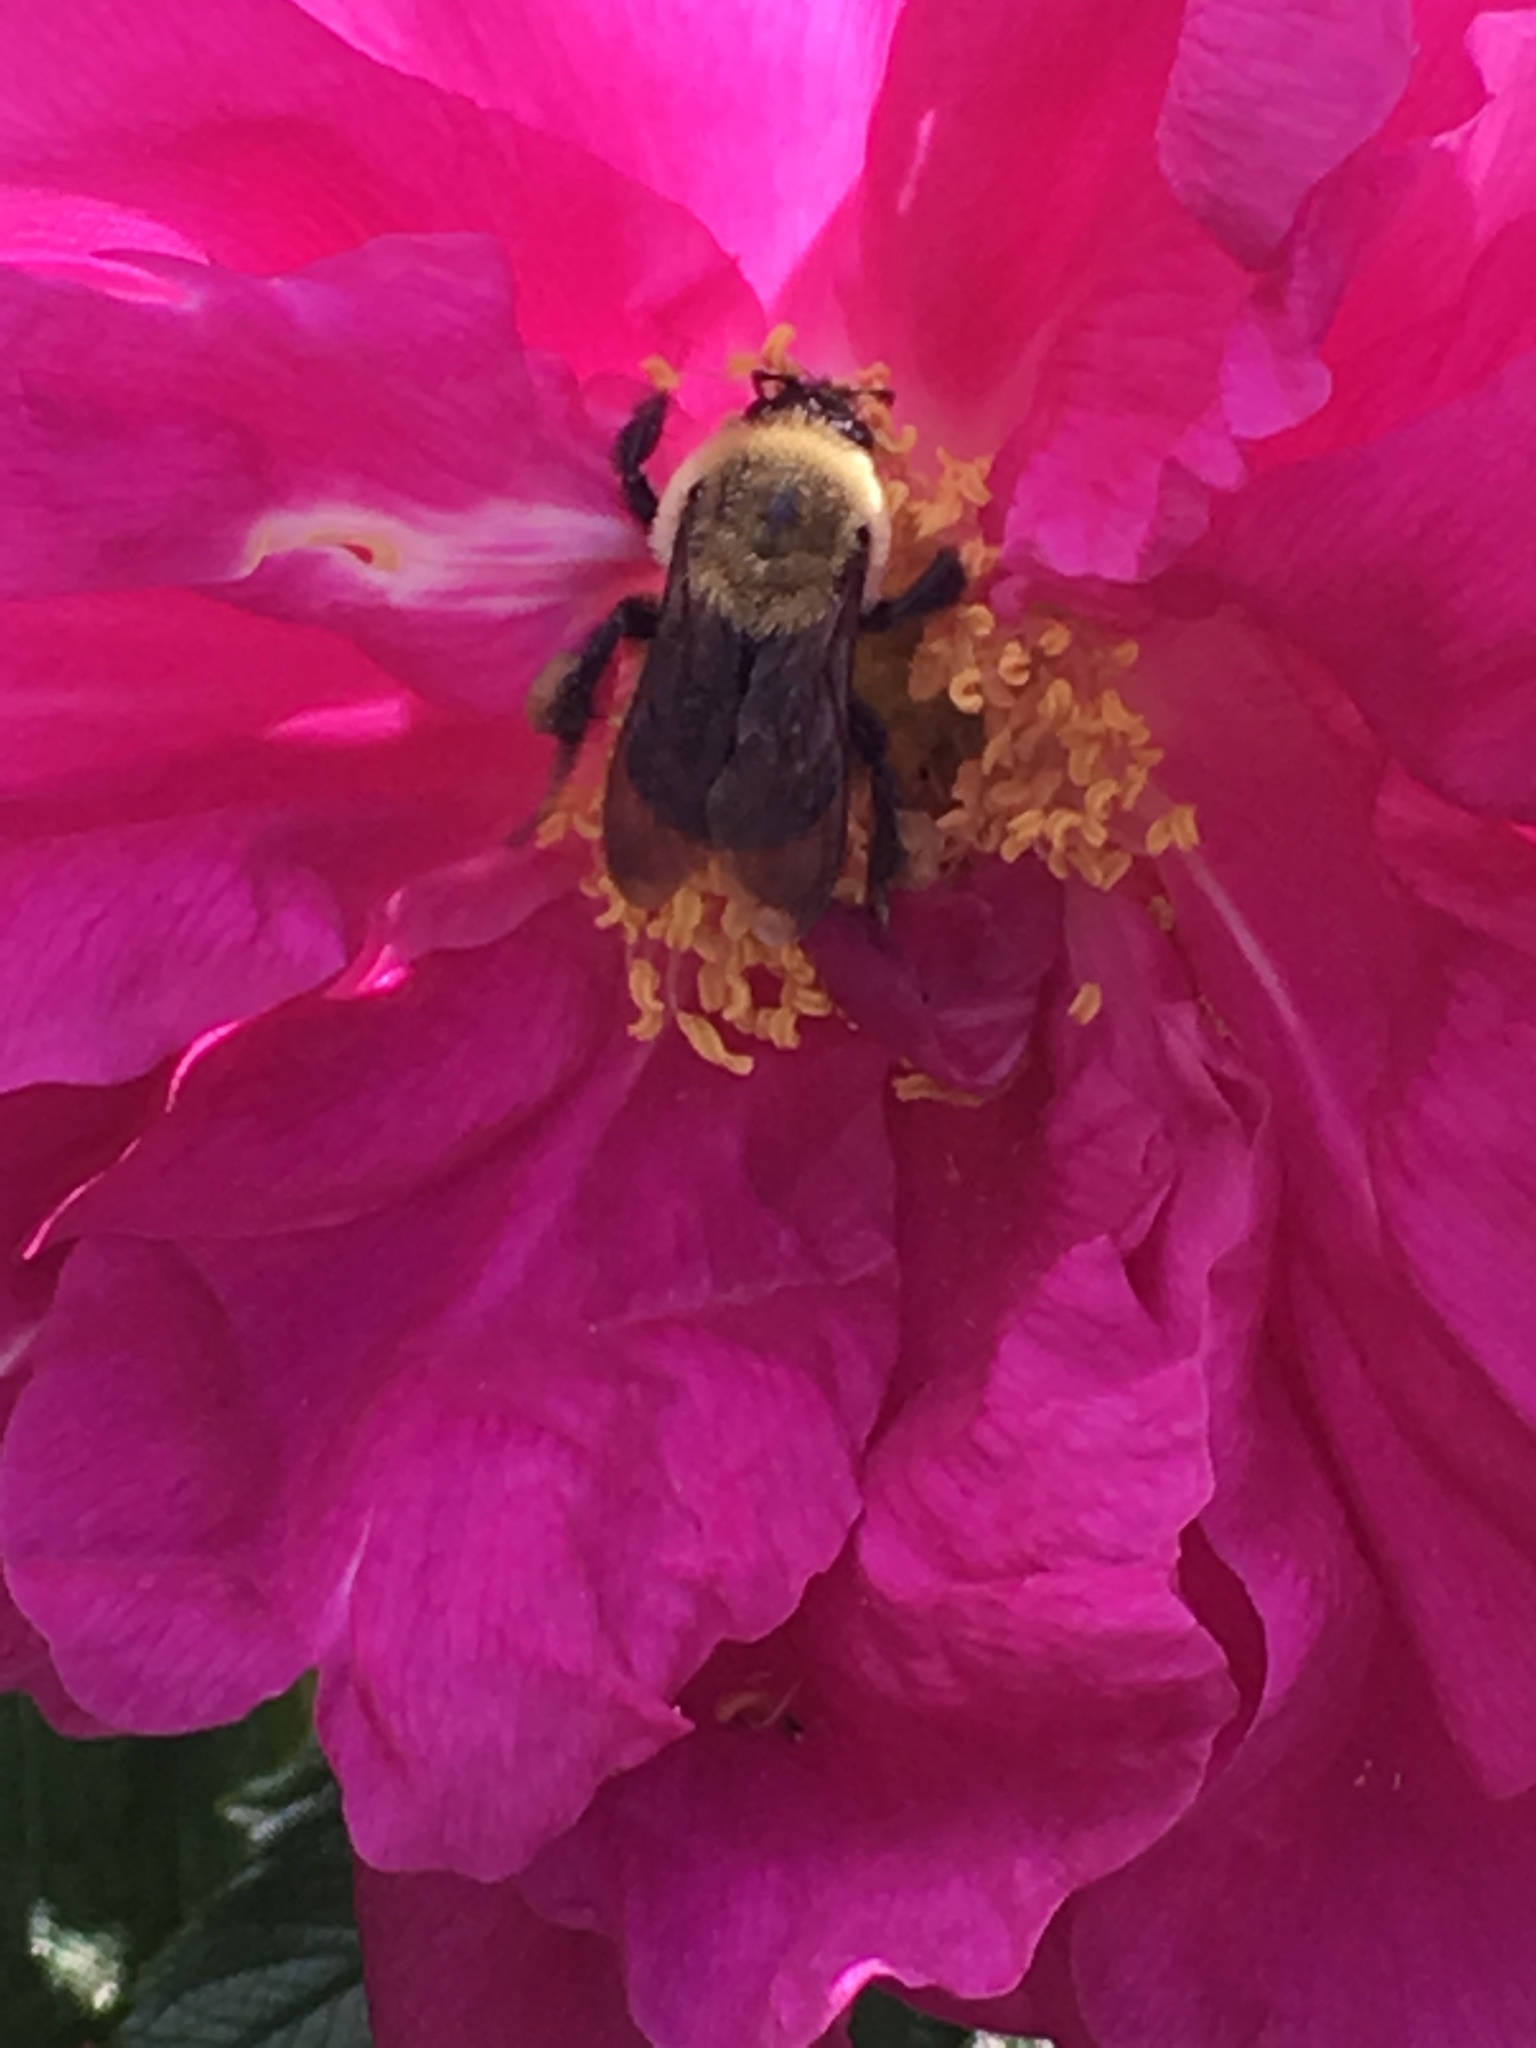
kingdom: Animalia
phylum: Arthropoda
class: Insecta
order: Hymenoptera
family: Apidae
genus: Bombus
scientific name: Bombus griseocollis
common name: Brown-belted bumble bee
